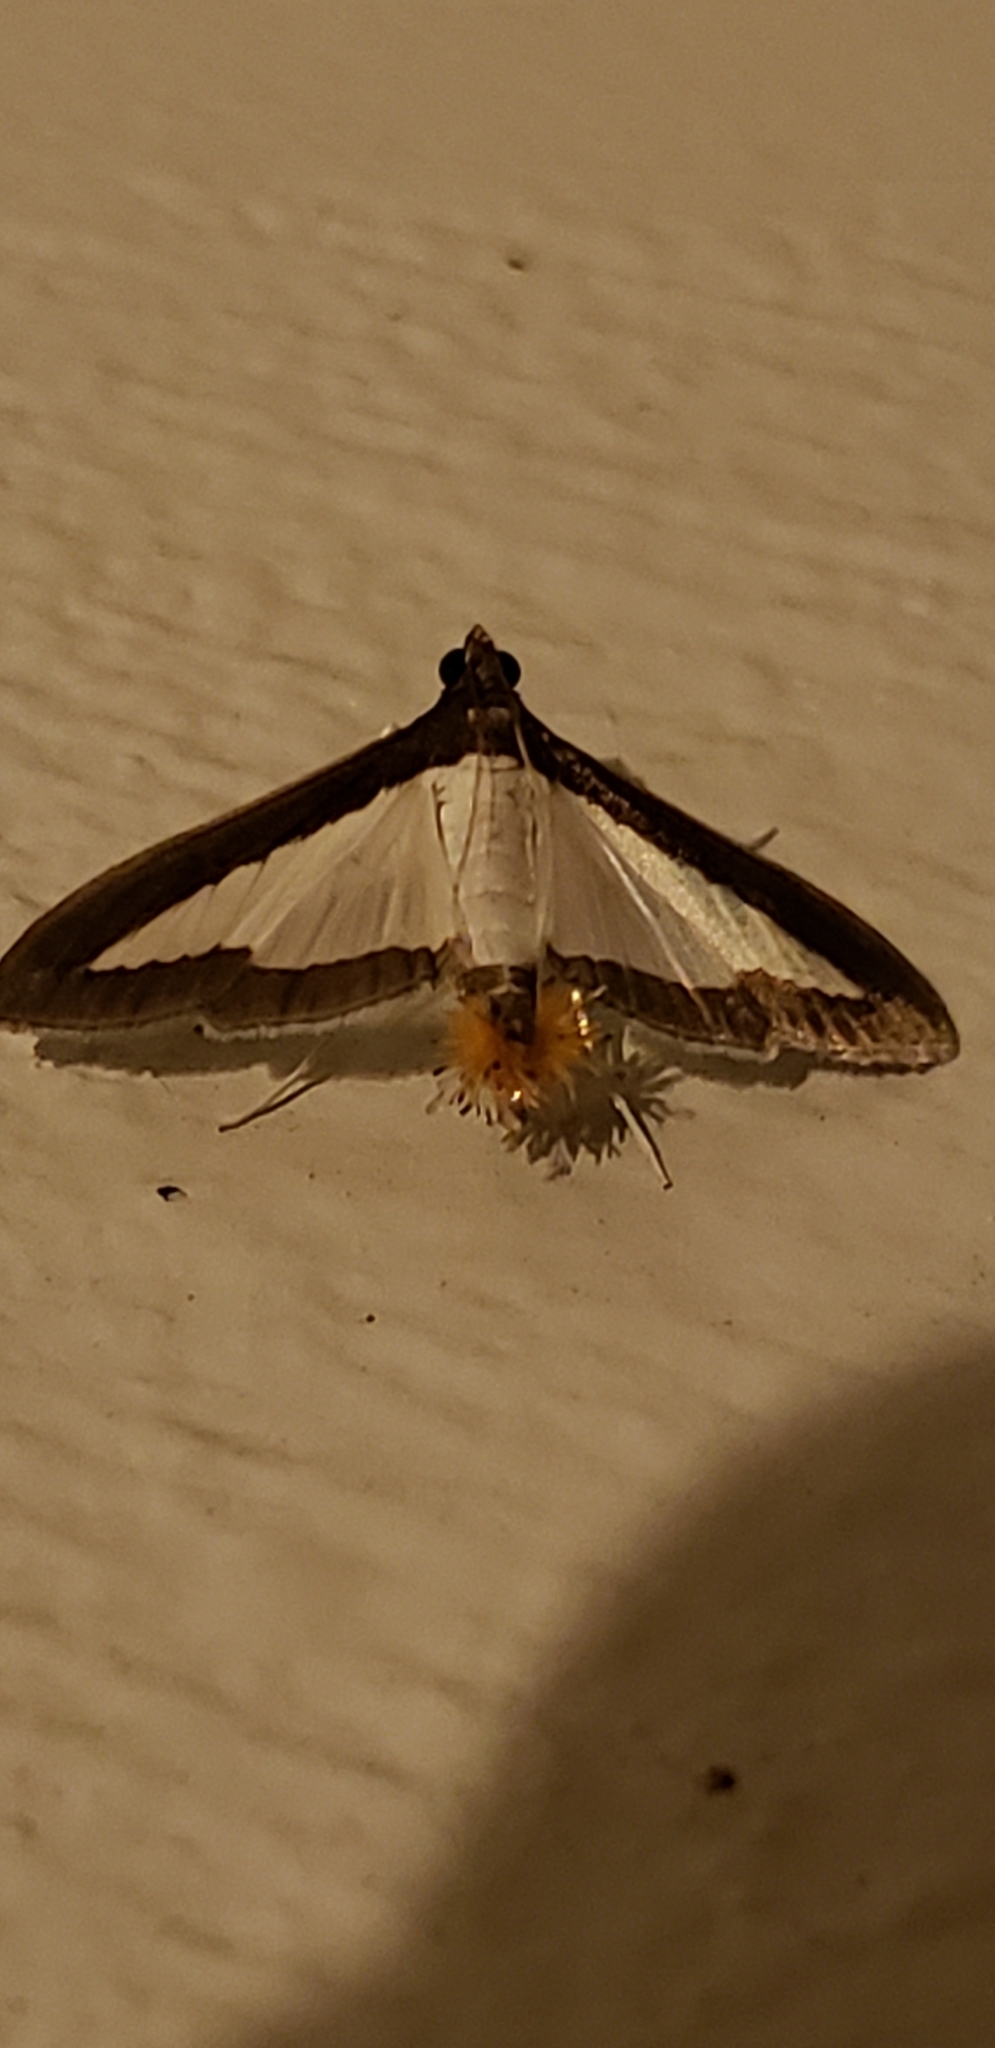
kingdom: Animalia
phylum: Arthropoda
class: Insecta
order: Lepidoptera
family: Crambidae
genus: Diaphania
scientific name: Diaphania hyalinata
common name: Melonworm
